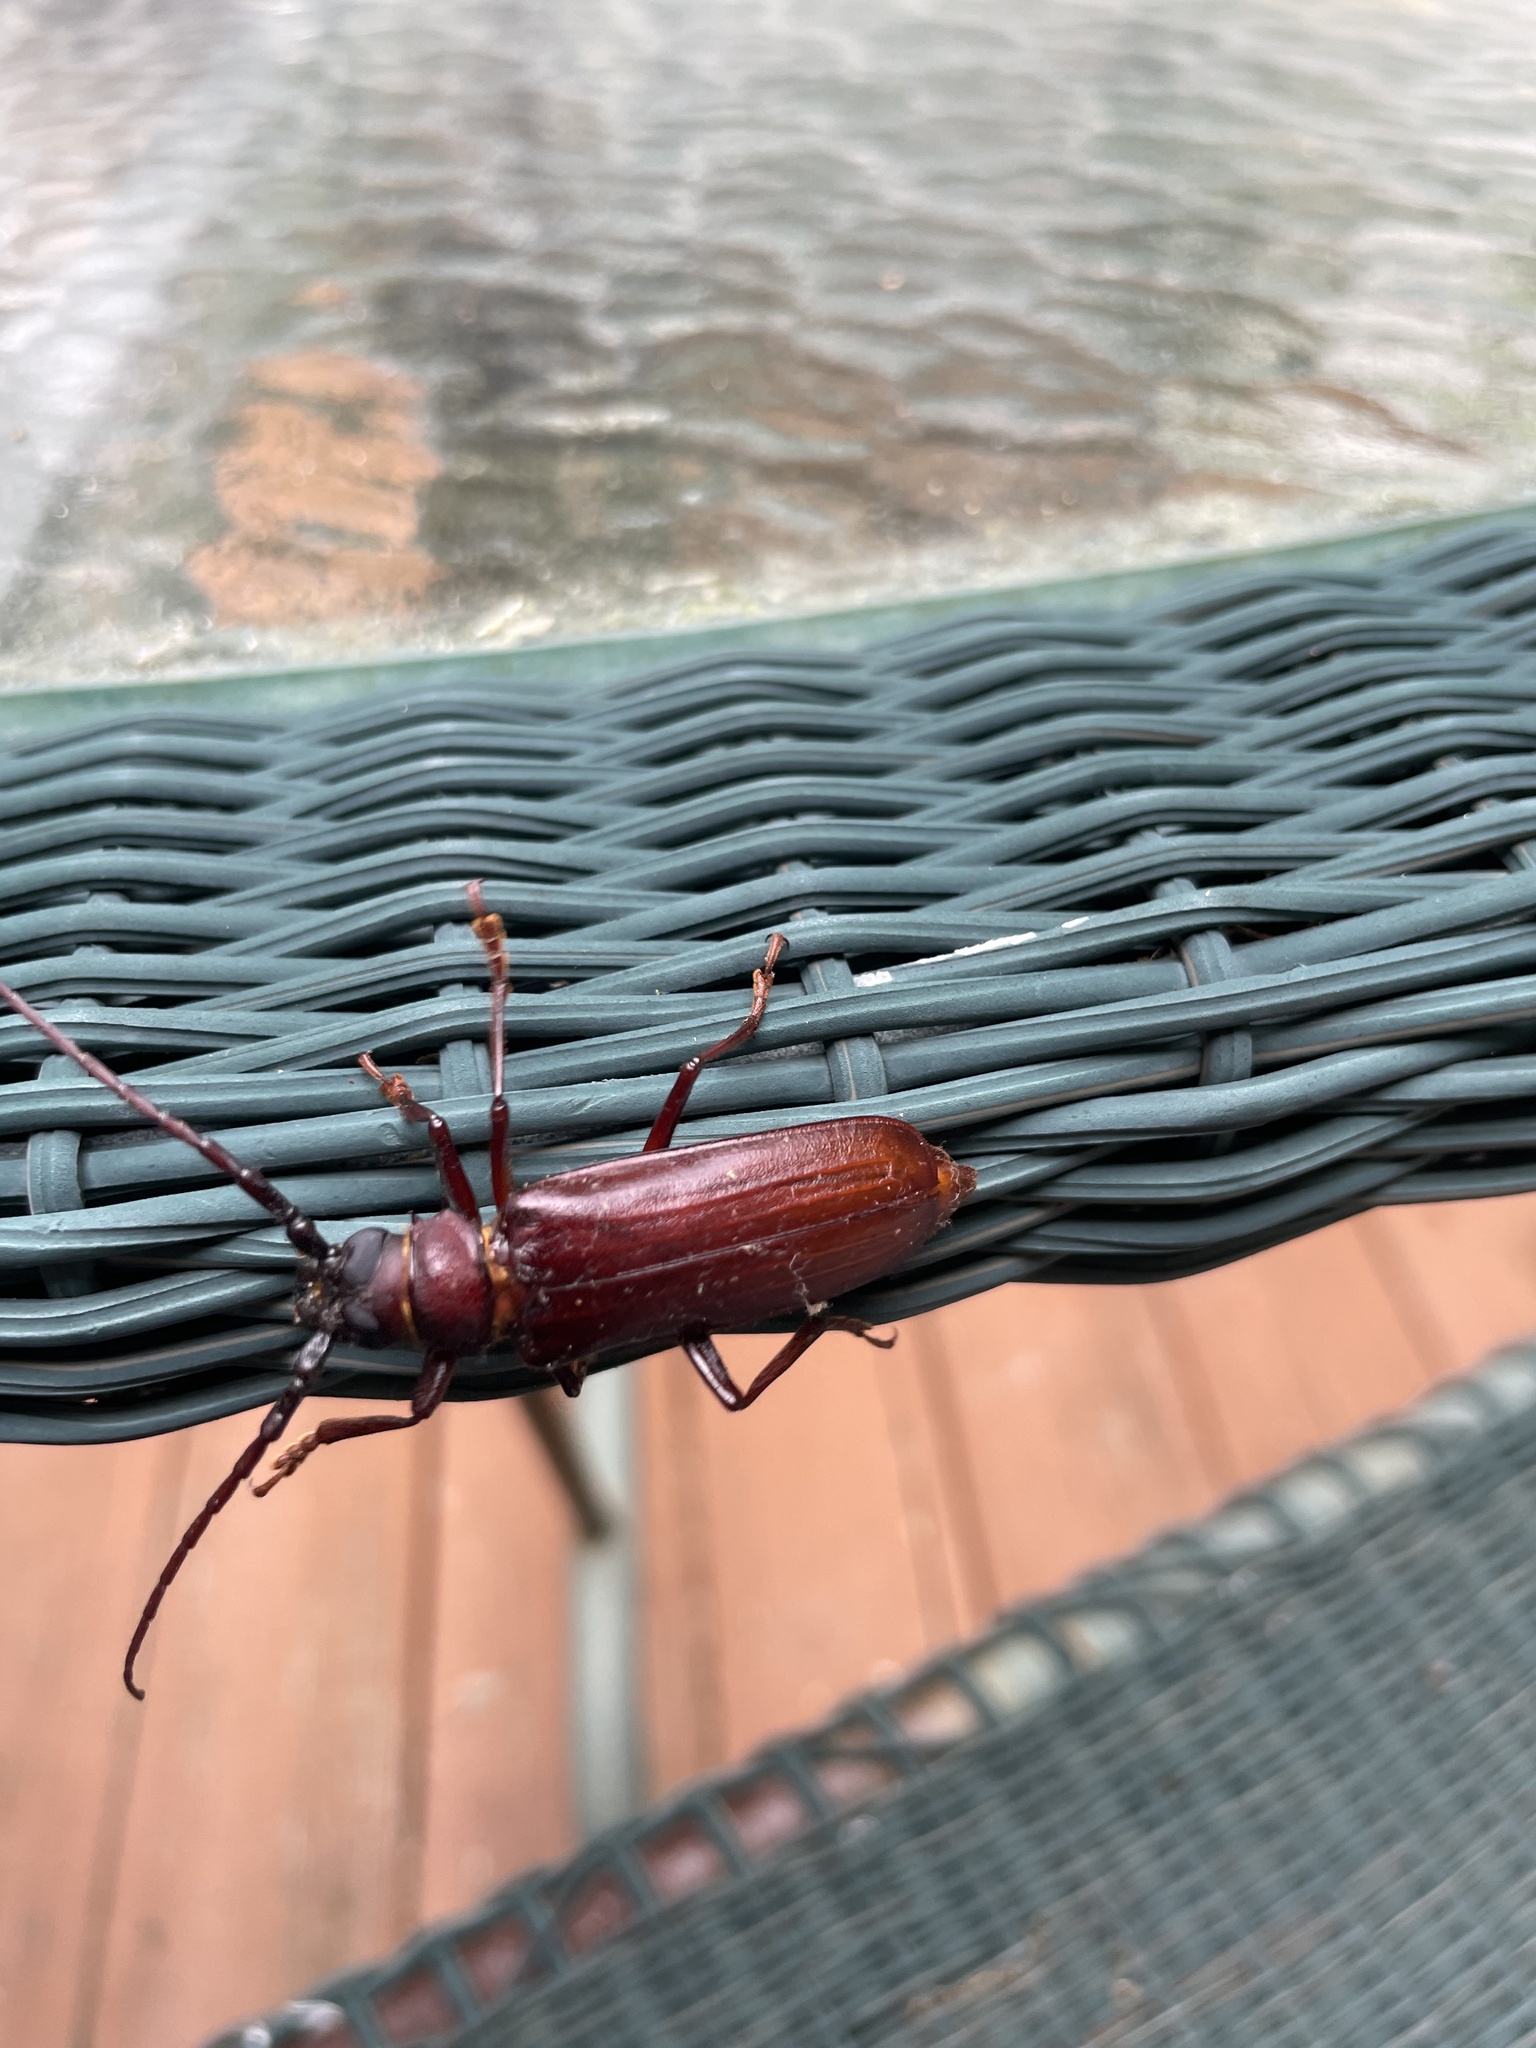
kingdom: Animalia
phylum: Arthropoda
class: Insecta
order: Coleoptera
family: Cerambycidae
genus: Orthosoma
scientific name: Orthosoma brunneum
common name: Brown prionid beetle
